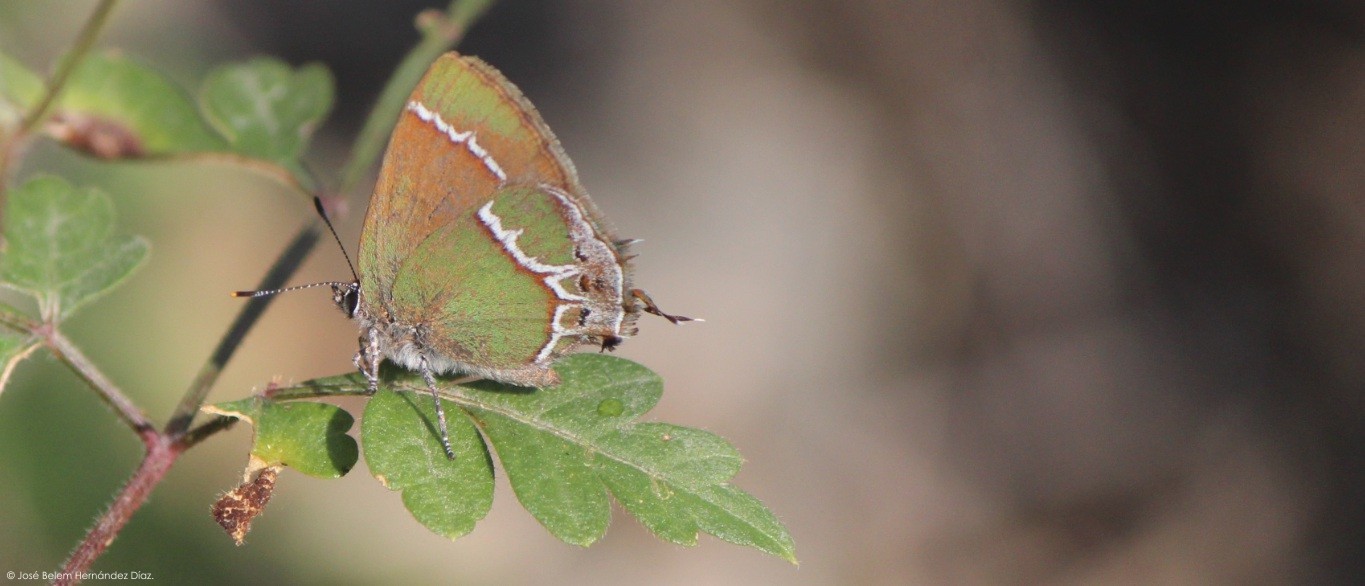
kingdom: Animalia
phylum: Arthropoda
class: Insecta
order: Lepidoptera
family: Lycaenidae
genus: Xamia
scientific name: Xamia xami
